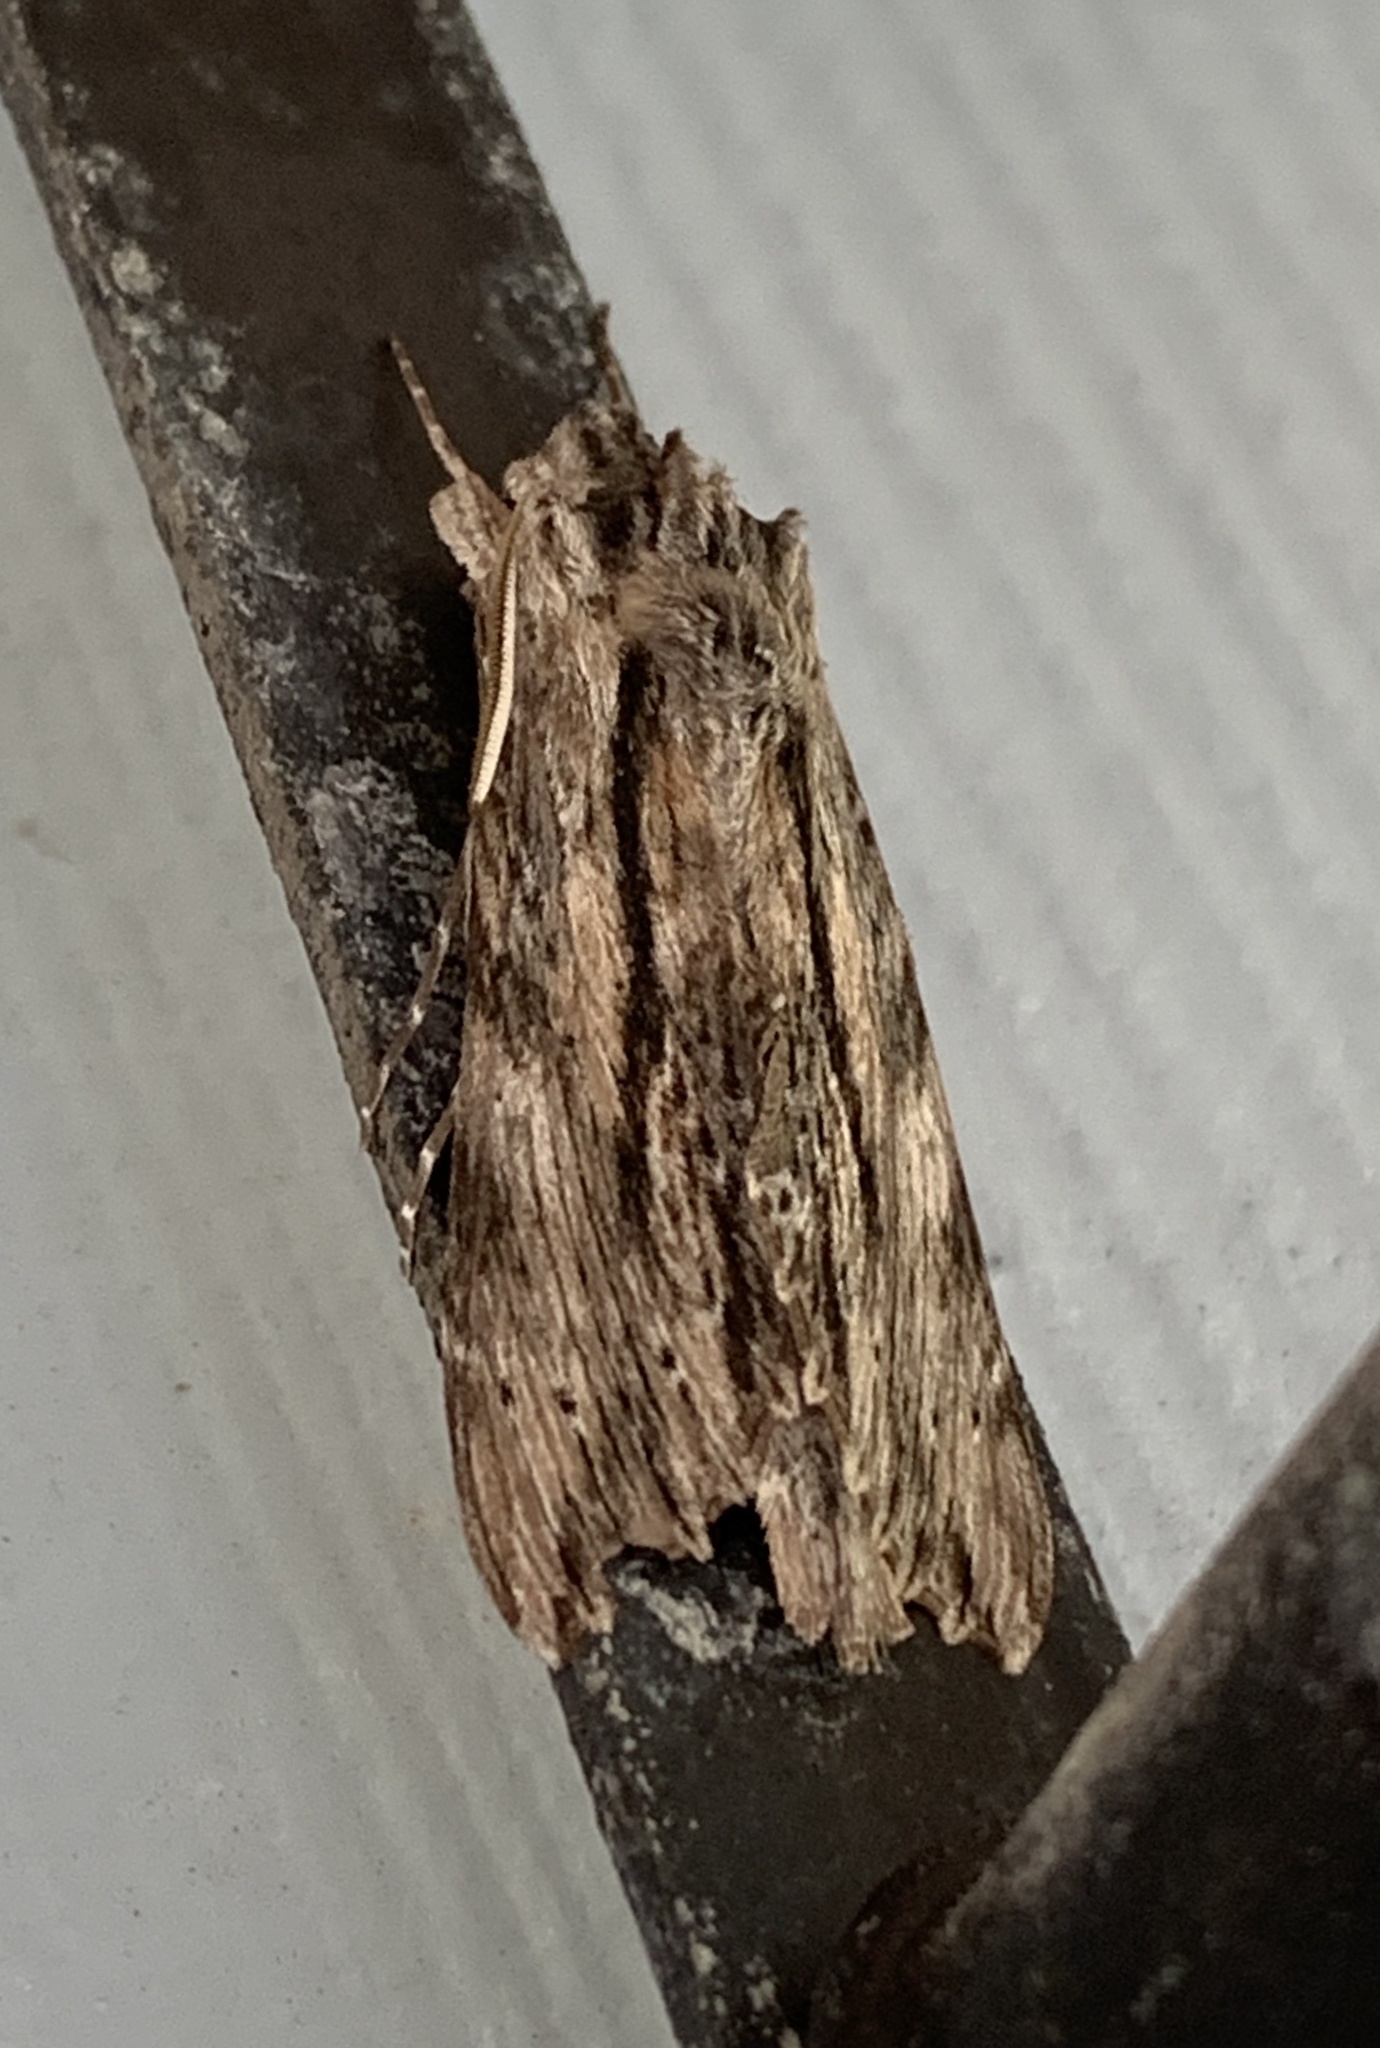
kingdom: Animalia
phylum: Arthropoda
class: Insecta
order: Lepidoptera
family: Sphingidae
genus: Erinnyis
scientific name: Erinnyis obscura
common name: Obscure sphinx
